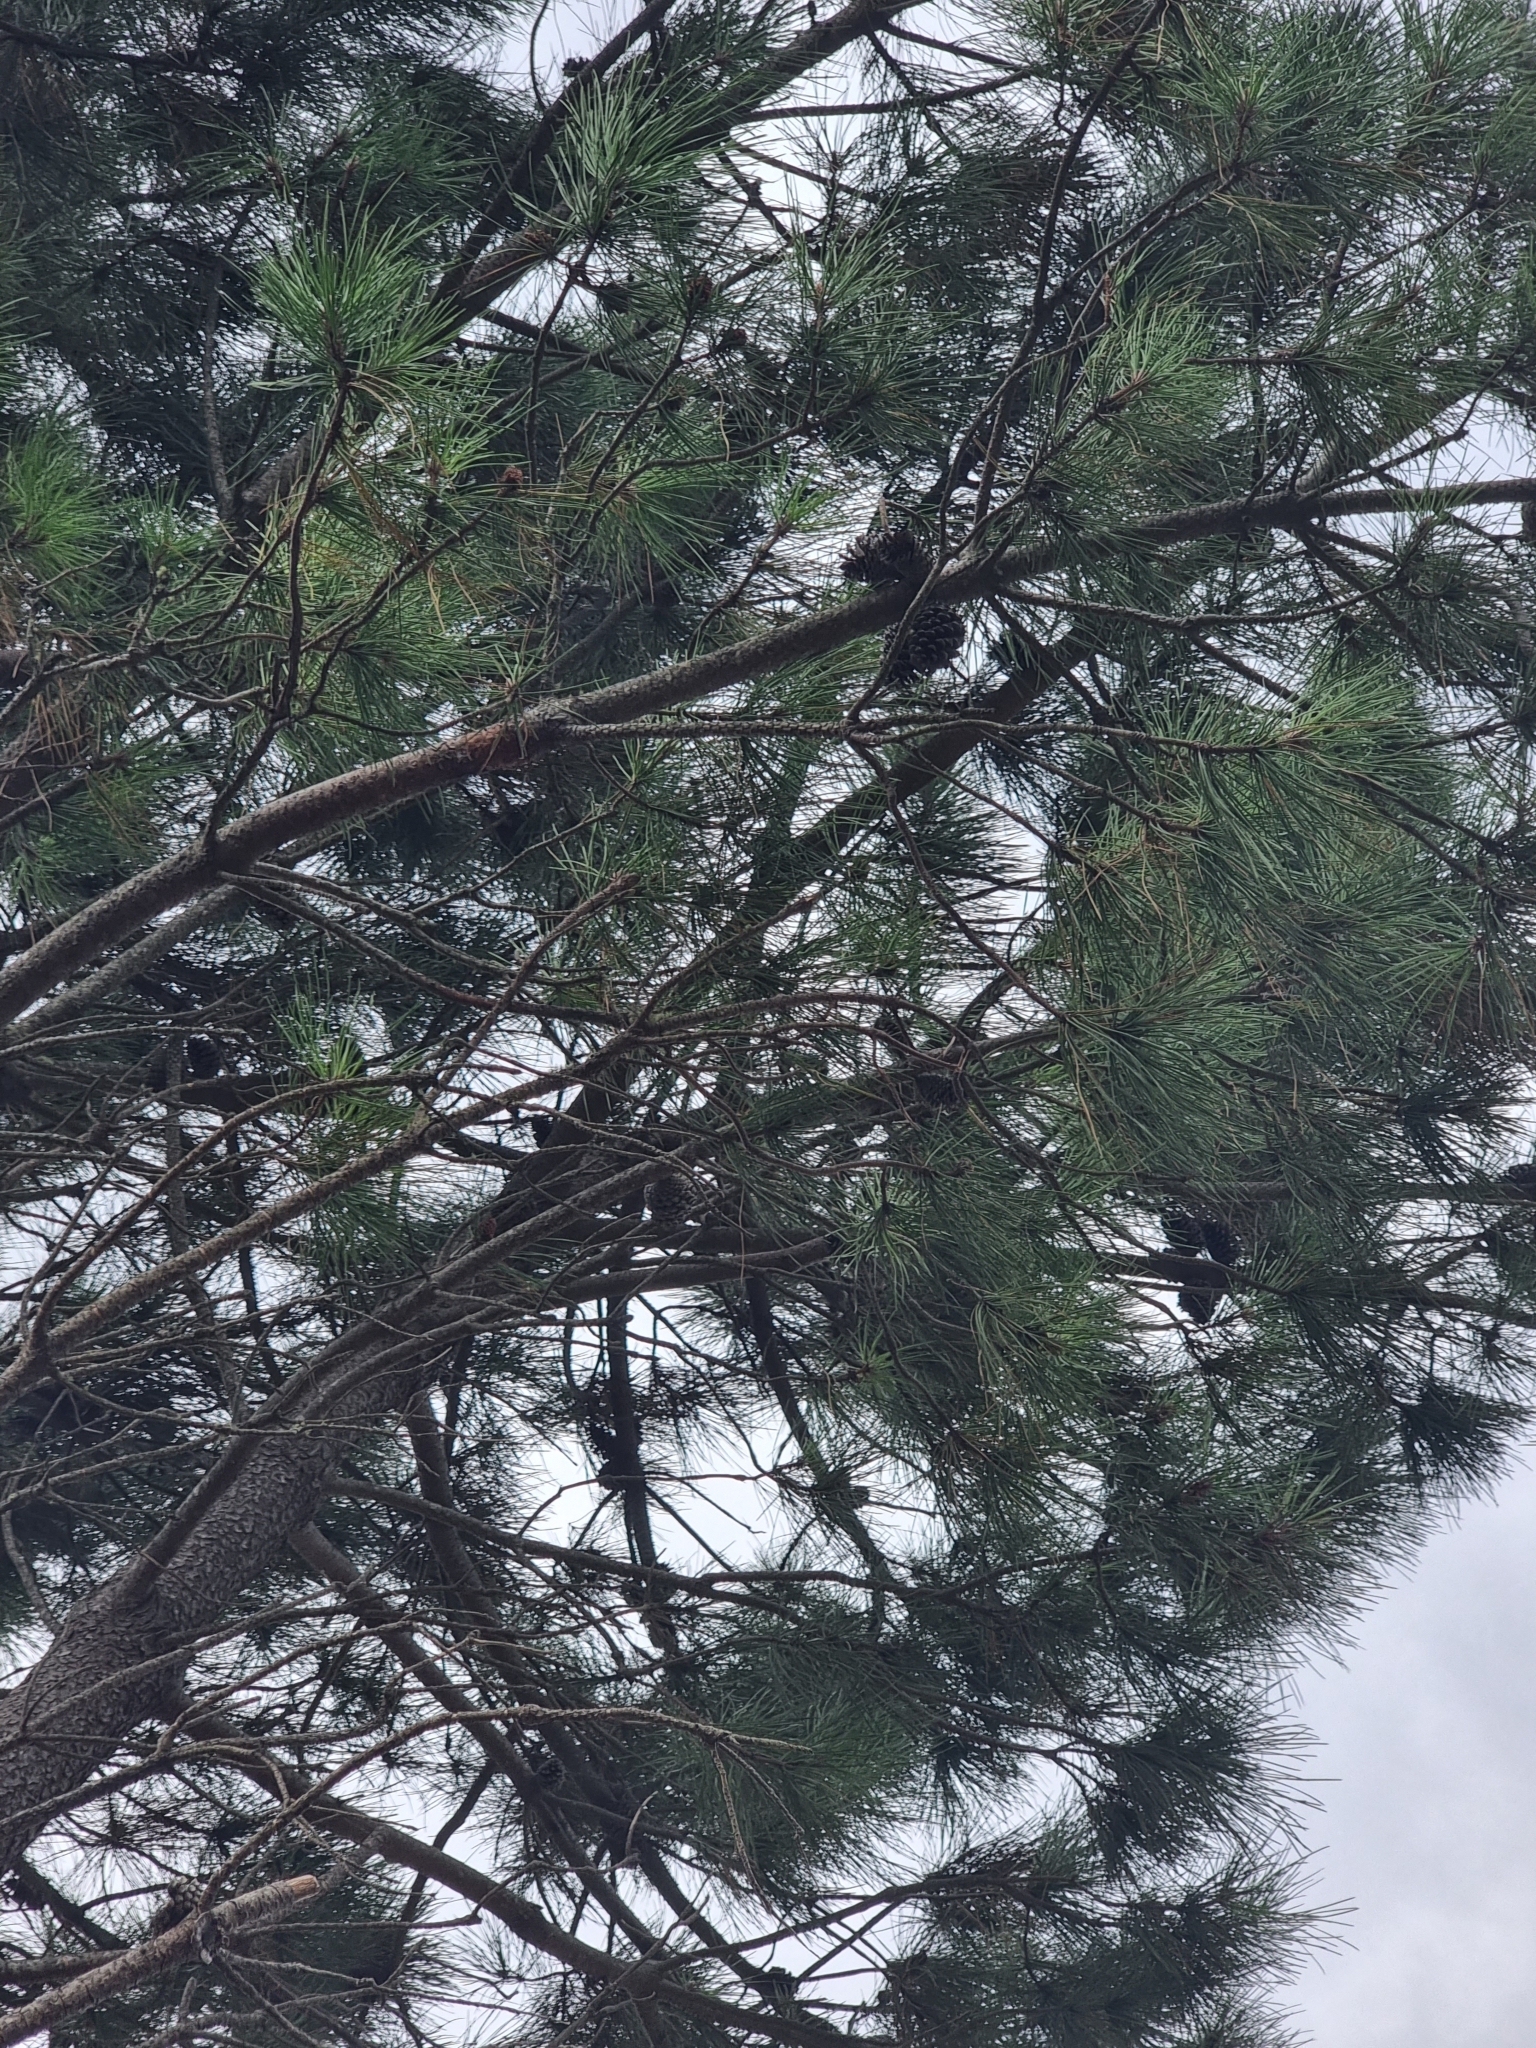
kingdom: Plantae
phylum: Tracheophyta
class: Pinopsida
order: Pinales
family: Pinaceae
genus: Pinus
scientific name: Pinus pinaster
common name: Maritime pine
